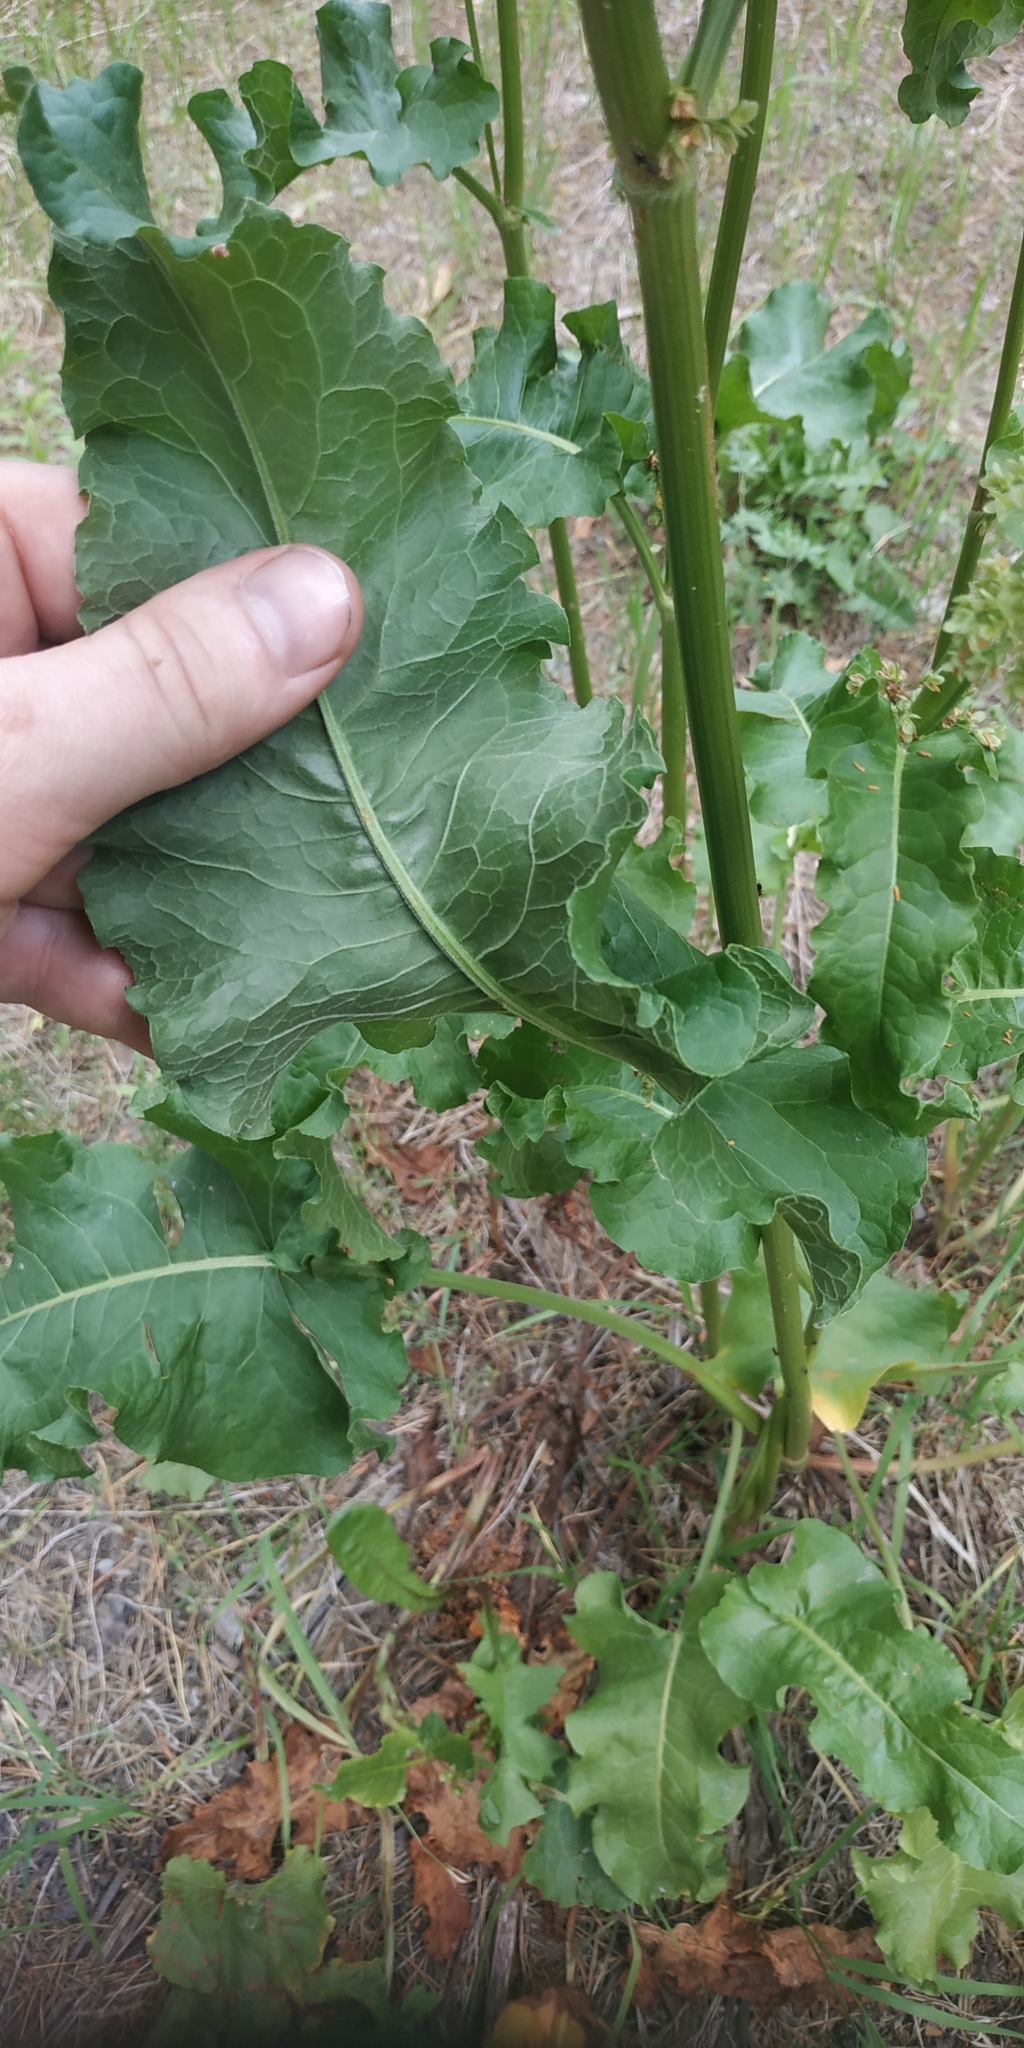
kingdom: Plantae
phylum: Tracheophyta
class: Magnoliopsida
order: Caryophyllales
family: Polygonaceae
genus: Rumex
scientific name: Rumex confertus
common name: Russian dock
